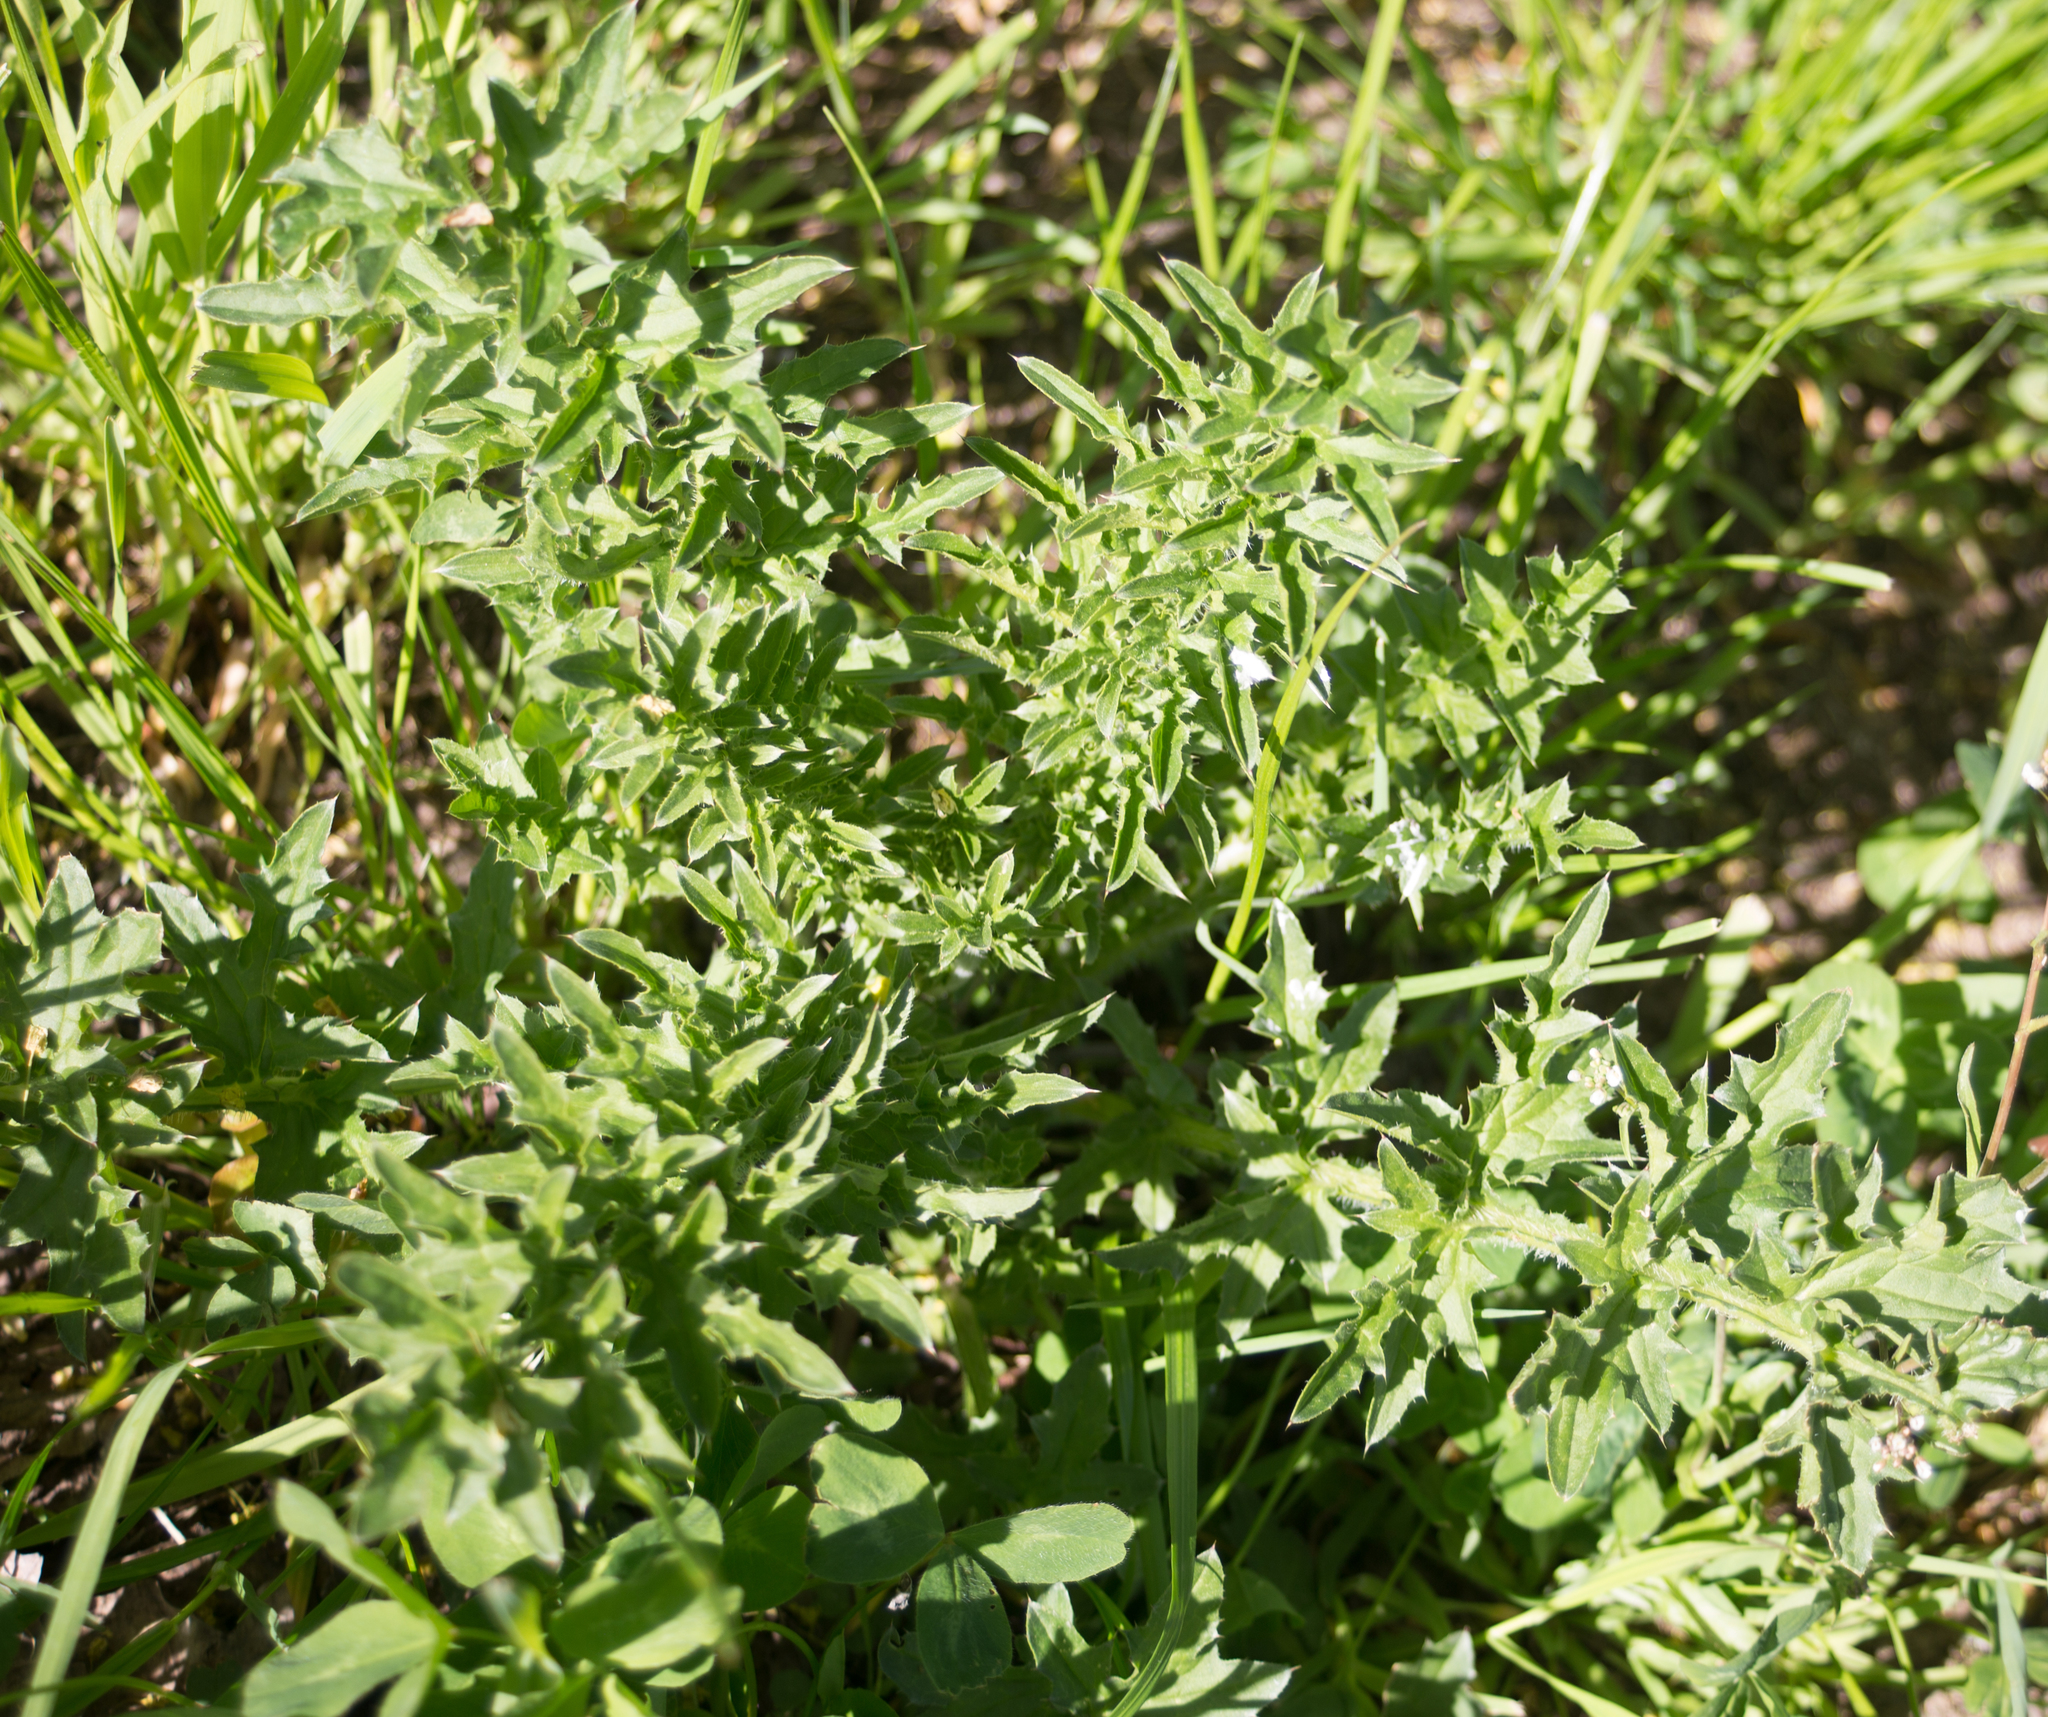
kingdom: Plantae
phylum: Tracheophyta
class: Magnoliopsida
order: Asterales
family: Asteraceae
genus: Carduus
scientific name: Carduus acanthoides
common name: Plumeless thistle
